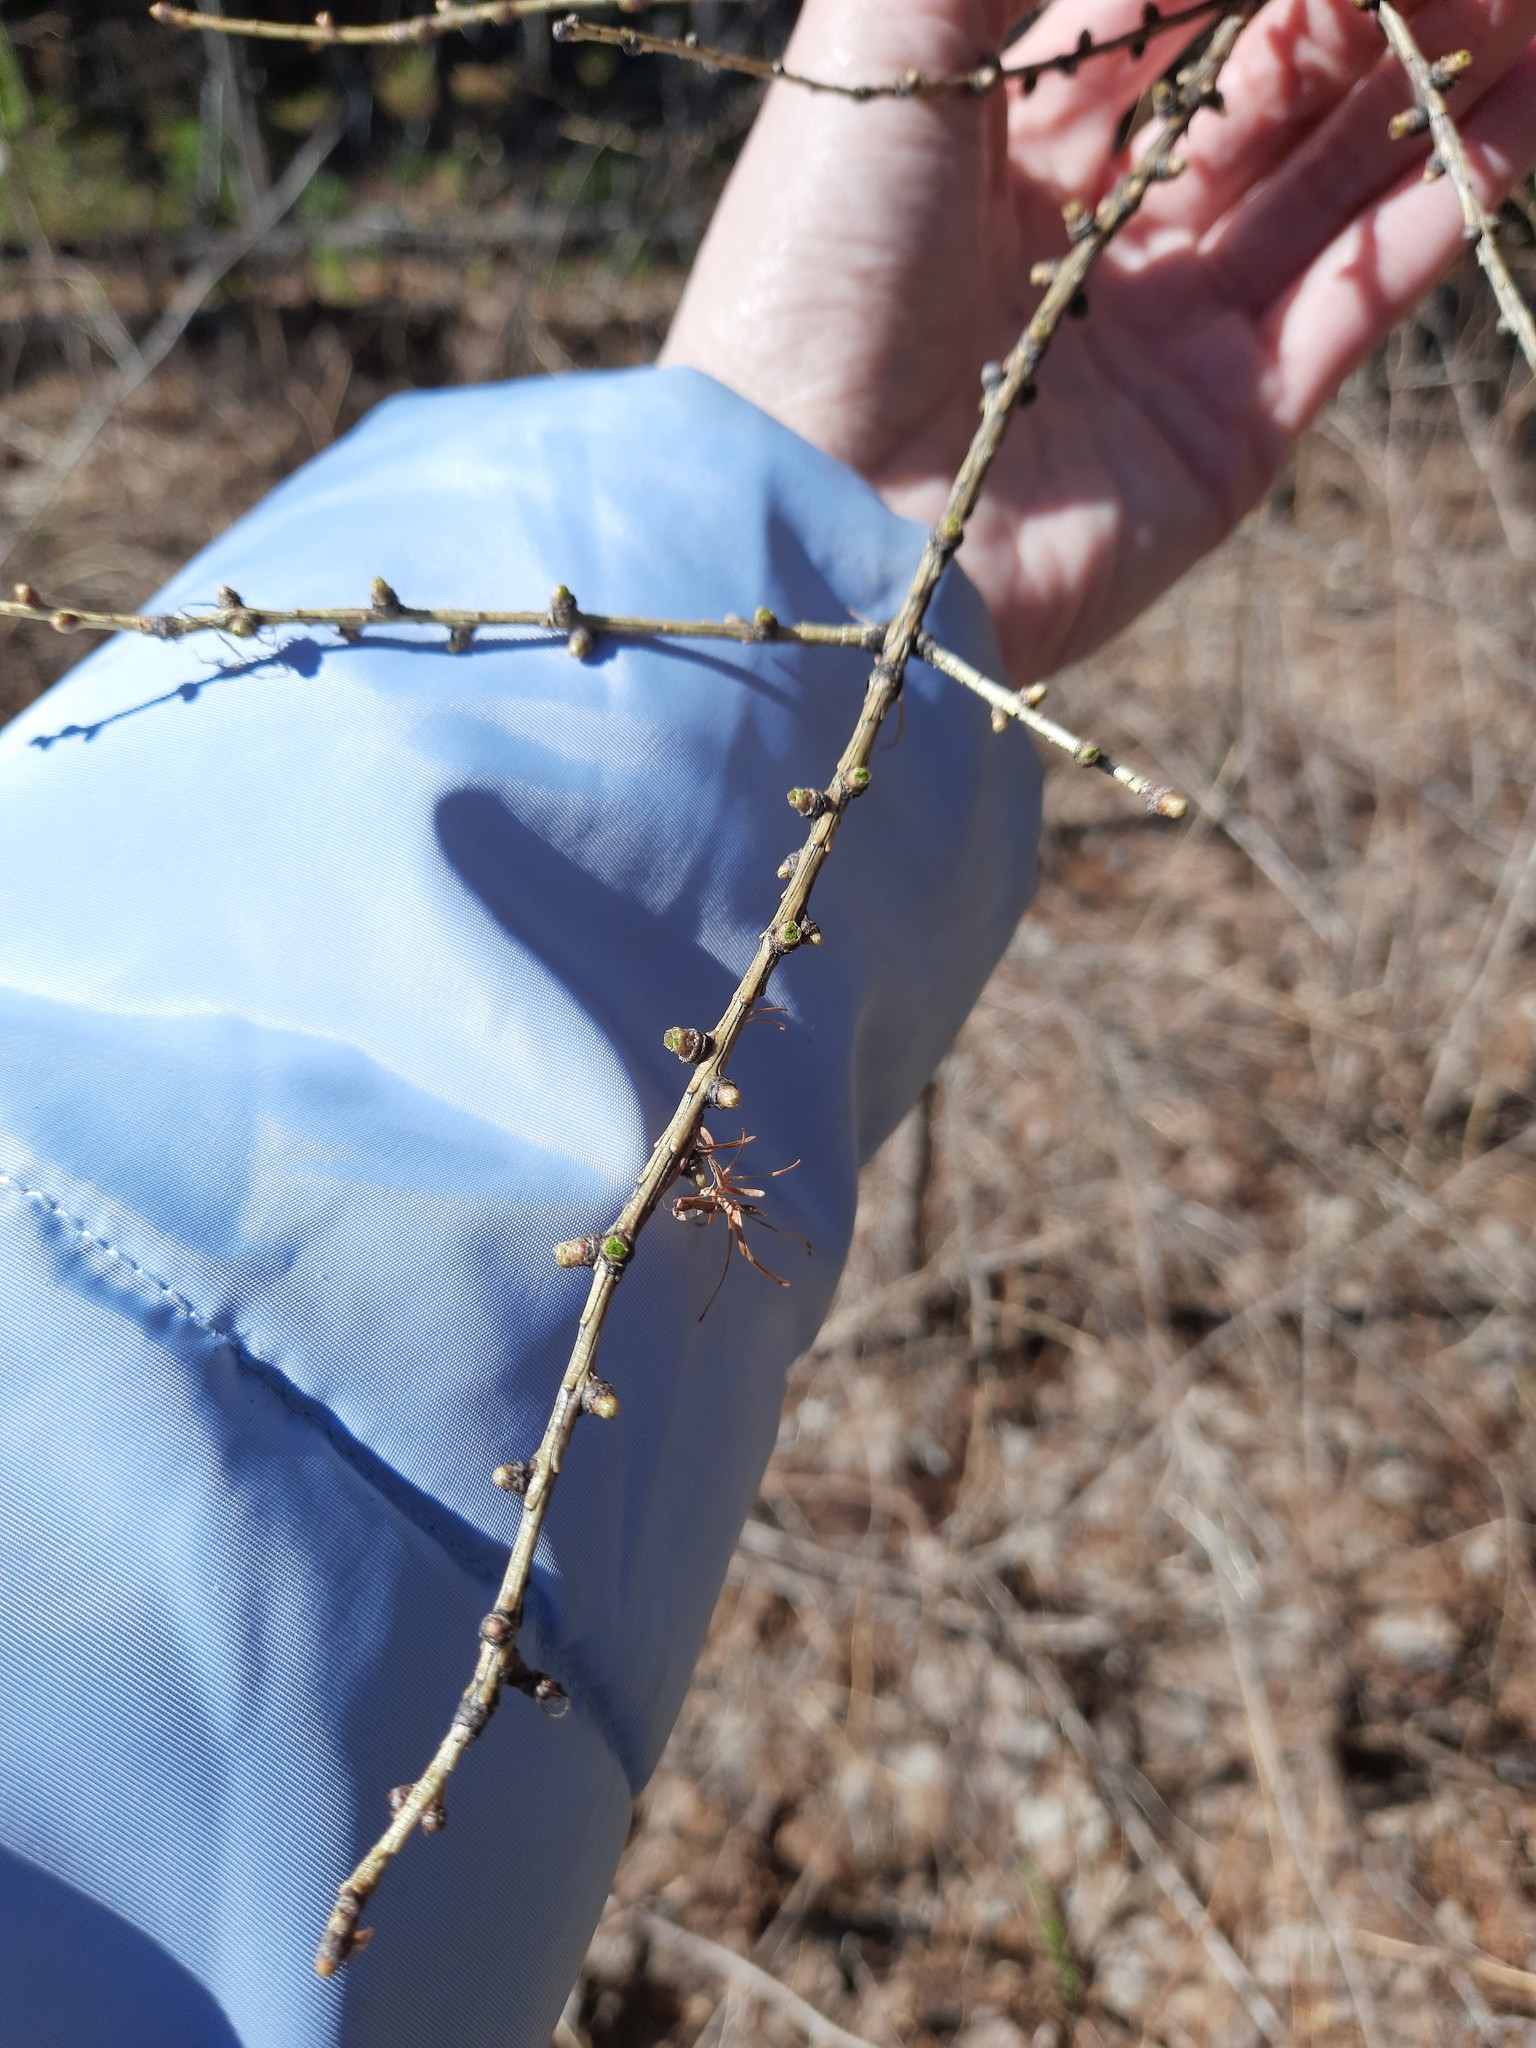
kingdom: Plantae
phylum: Tracheophyta
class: Pinopsida
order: Pinales
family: Pinaceae
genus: Larix
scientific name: Larix sibirica
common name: Siberian larch
